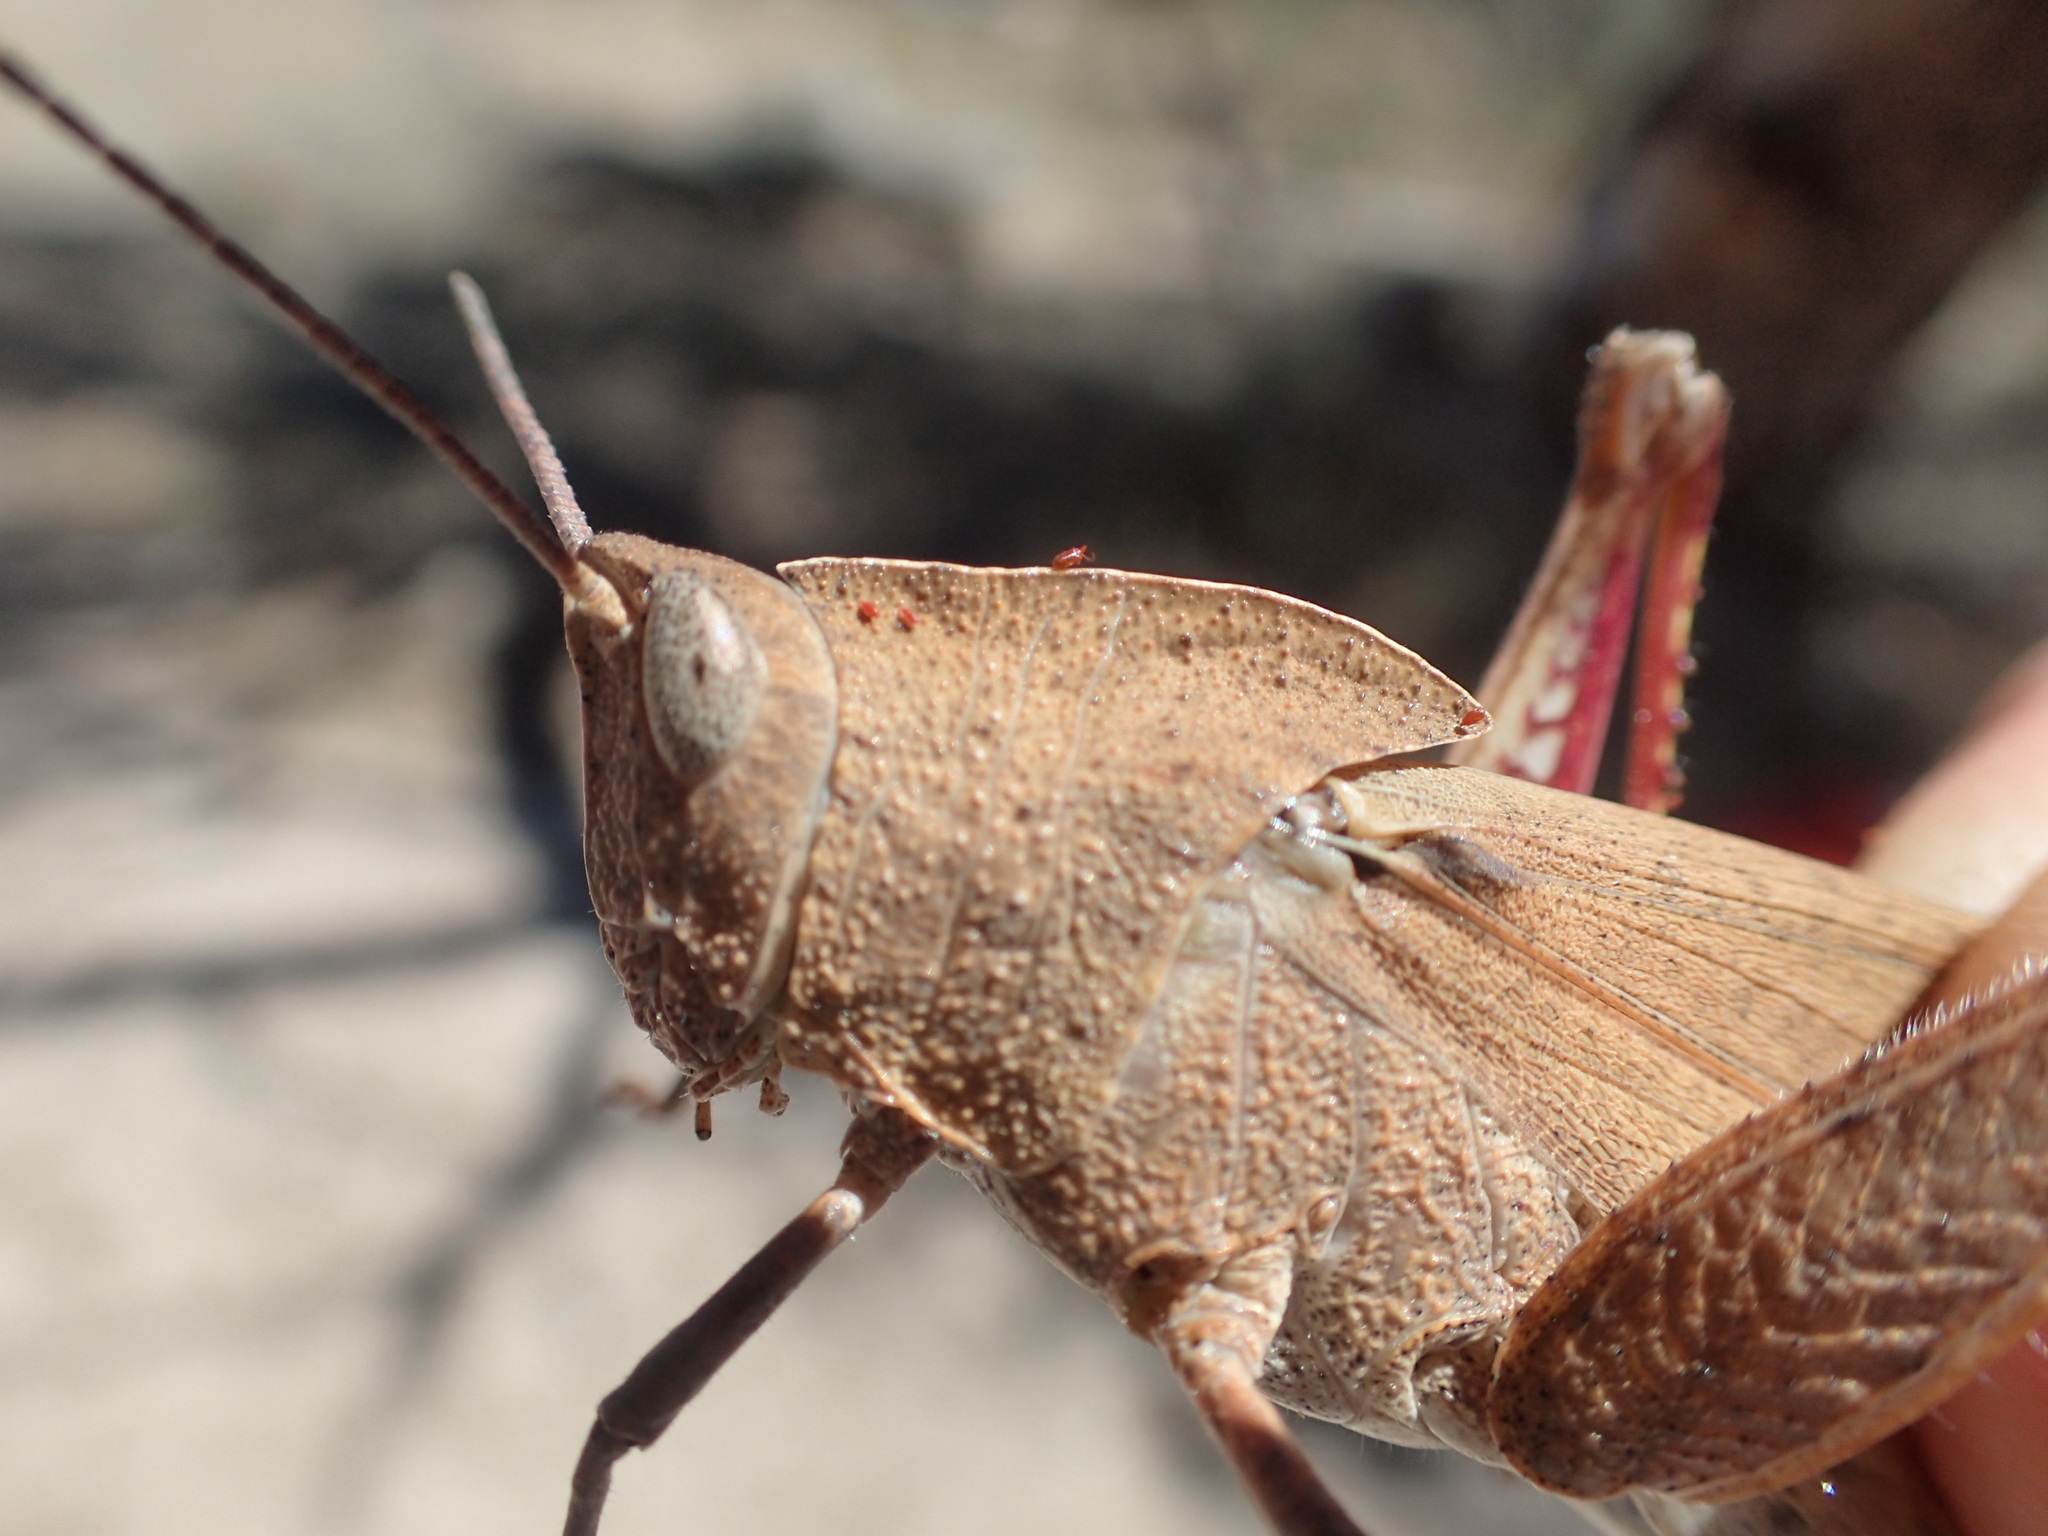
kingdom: Animalia
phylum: Arthropoda
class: Insecta
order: Orthoptera
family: Acrididae
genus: Goniaea
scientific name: Goniaea australasiae
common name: Gumleaf grasshopper
